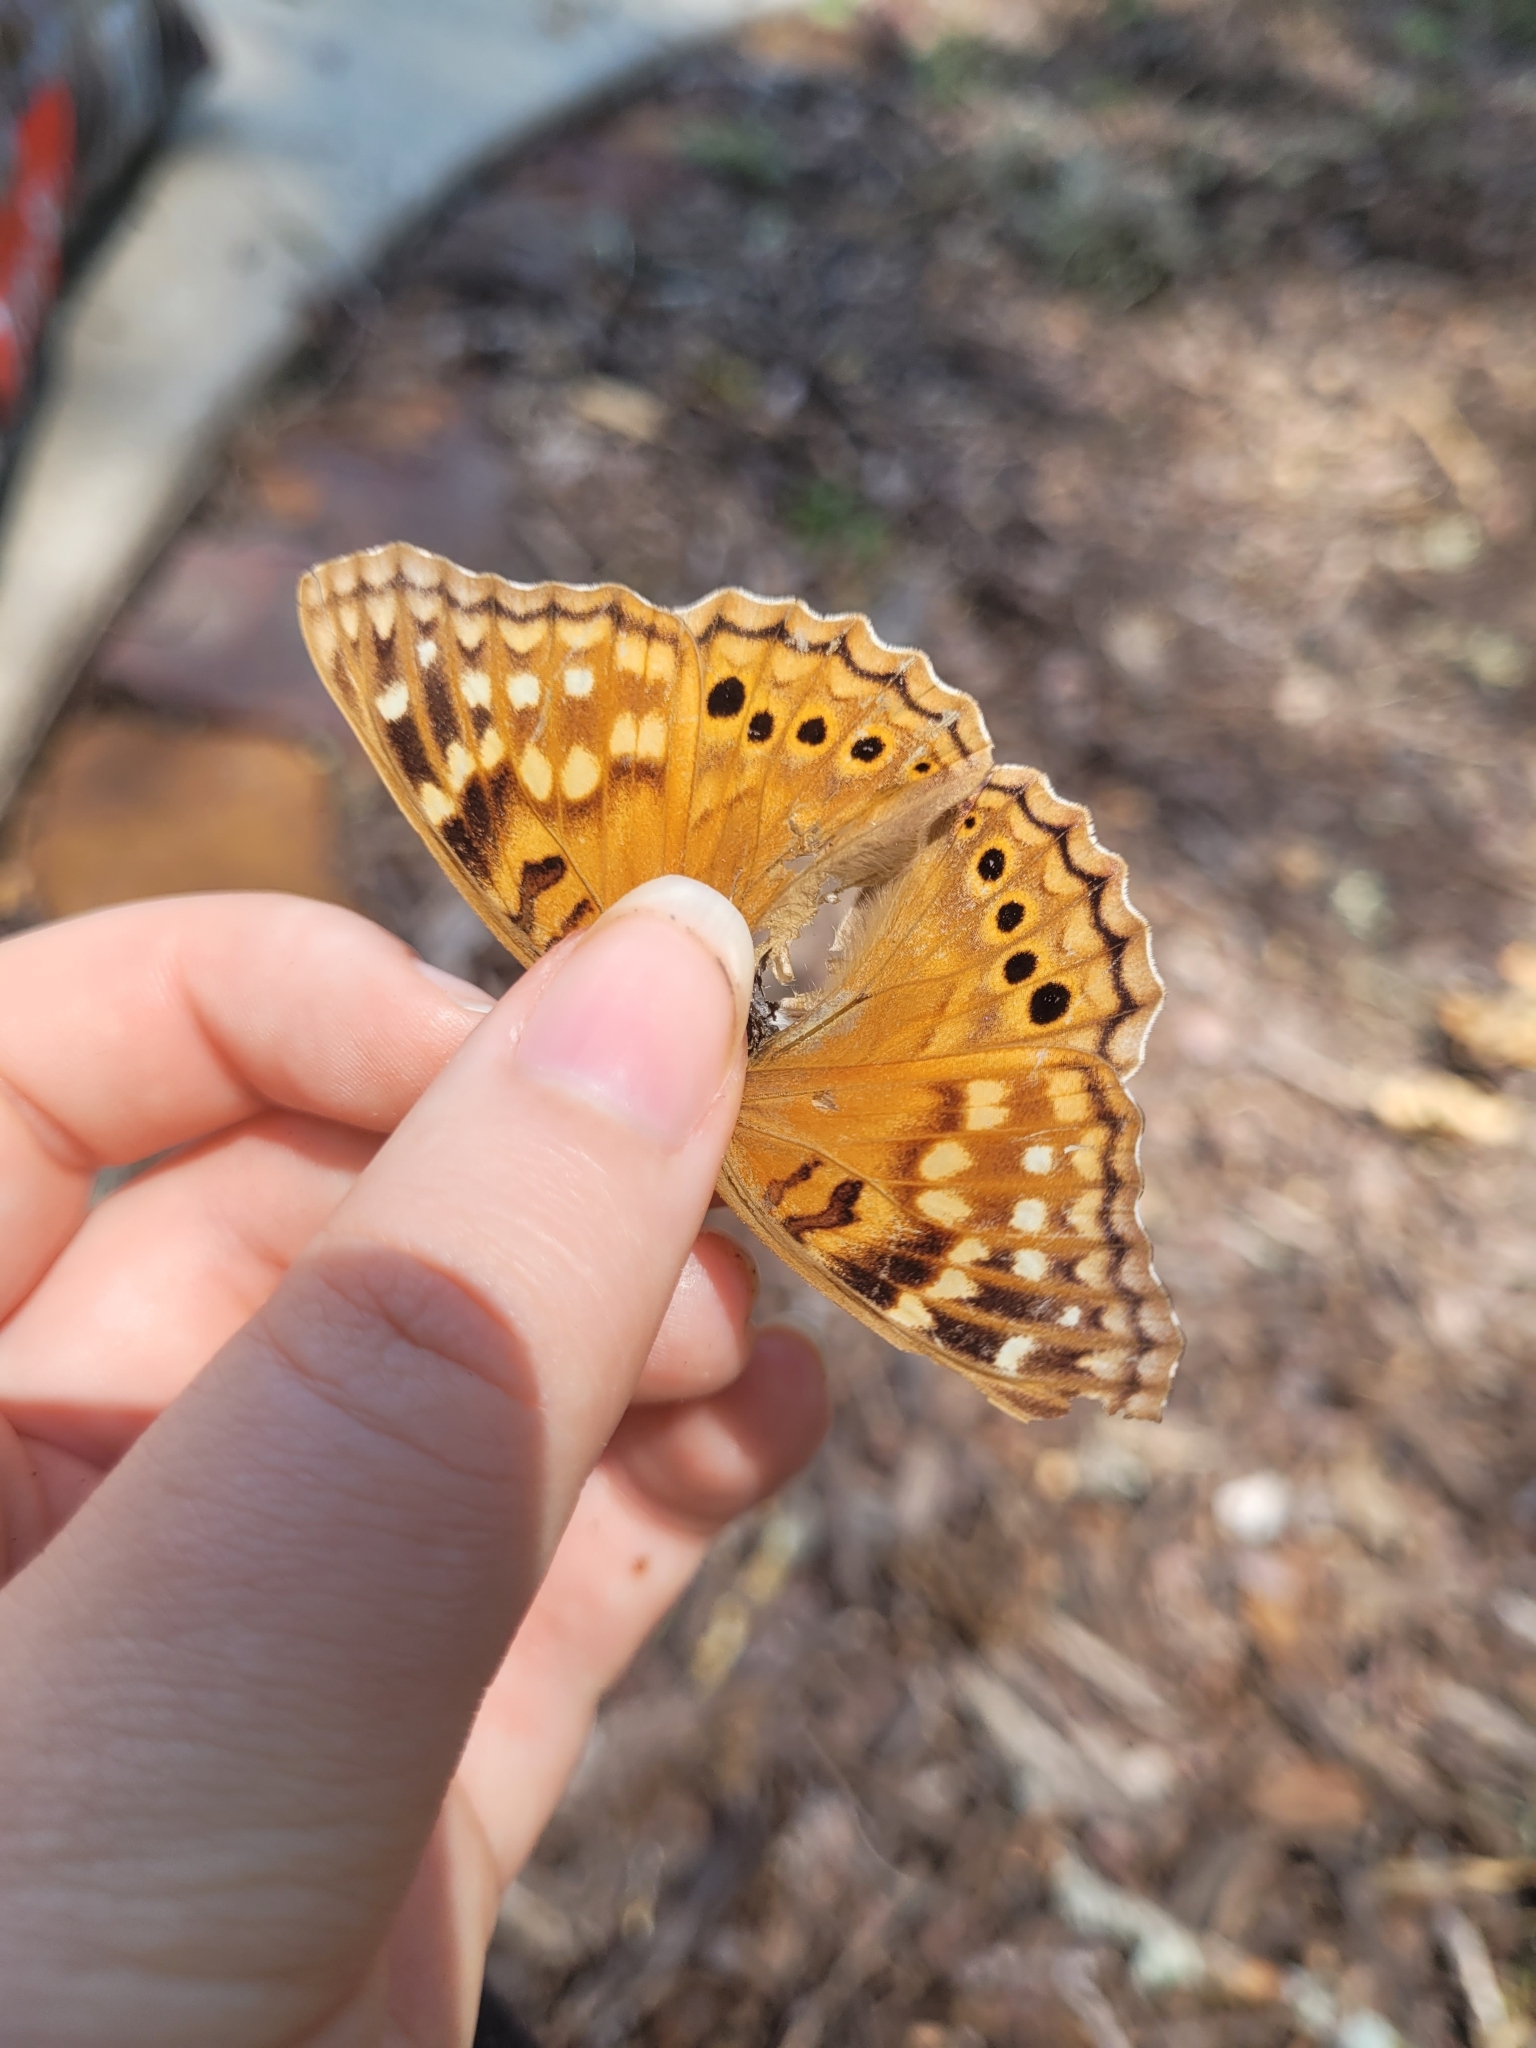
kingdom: Animalia
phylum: Arthropoda
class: Insecta
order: Lepidoptera
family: Nymphalidae
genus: Asterocampa
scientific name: Asterocampa clyton
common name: Tawny emperor
